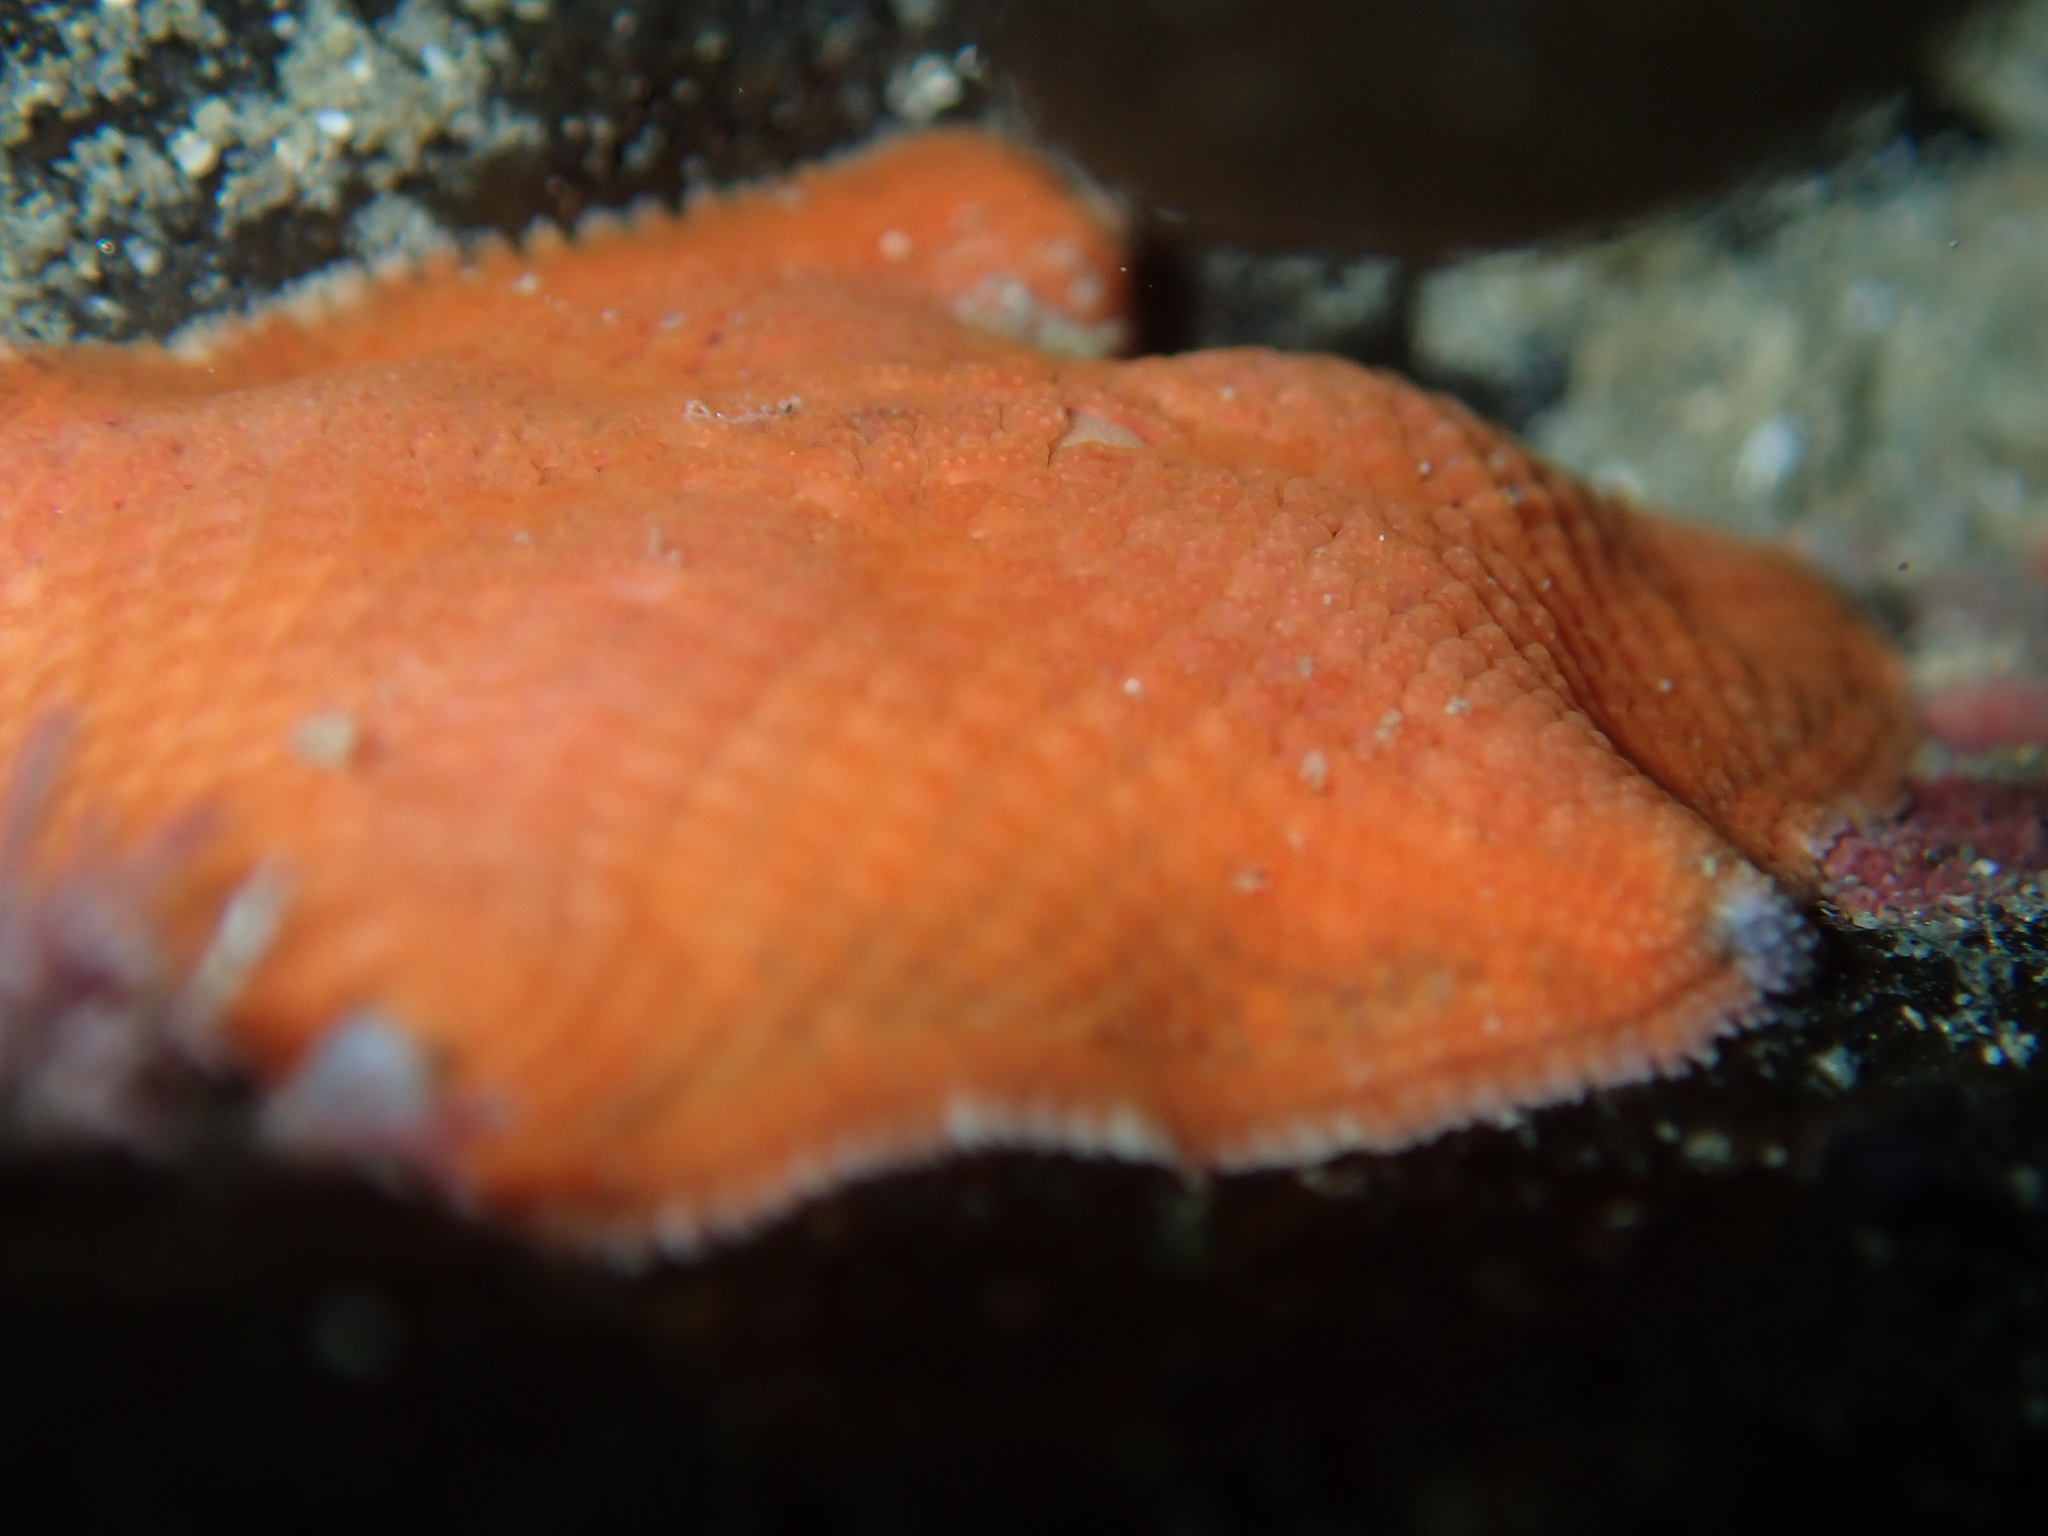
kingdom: Animalia
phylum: Echinodermata
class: Asteroidea
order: Valvatida
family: Asterinidae
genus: Patiriella
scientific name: Patiriella regularis
